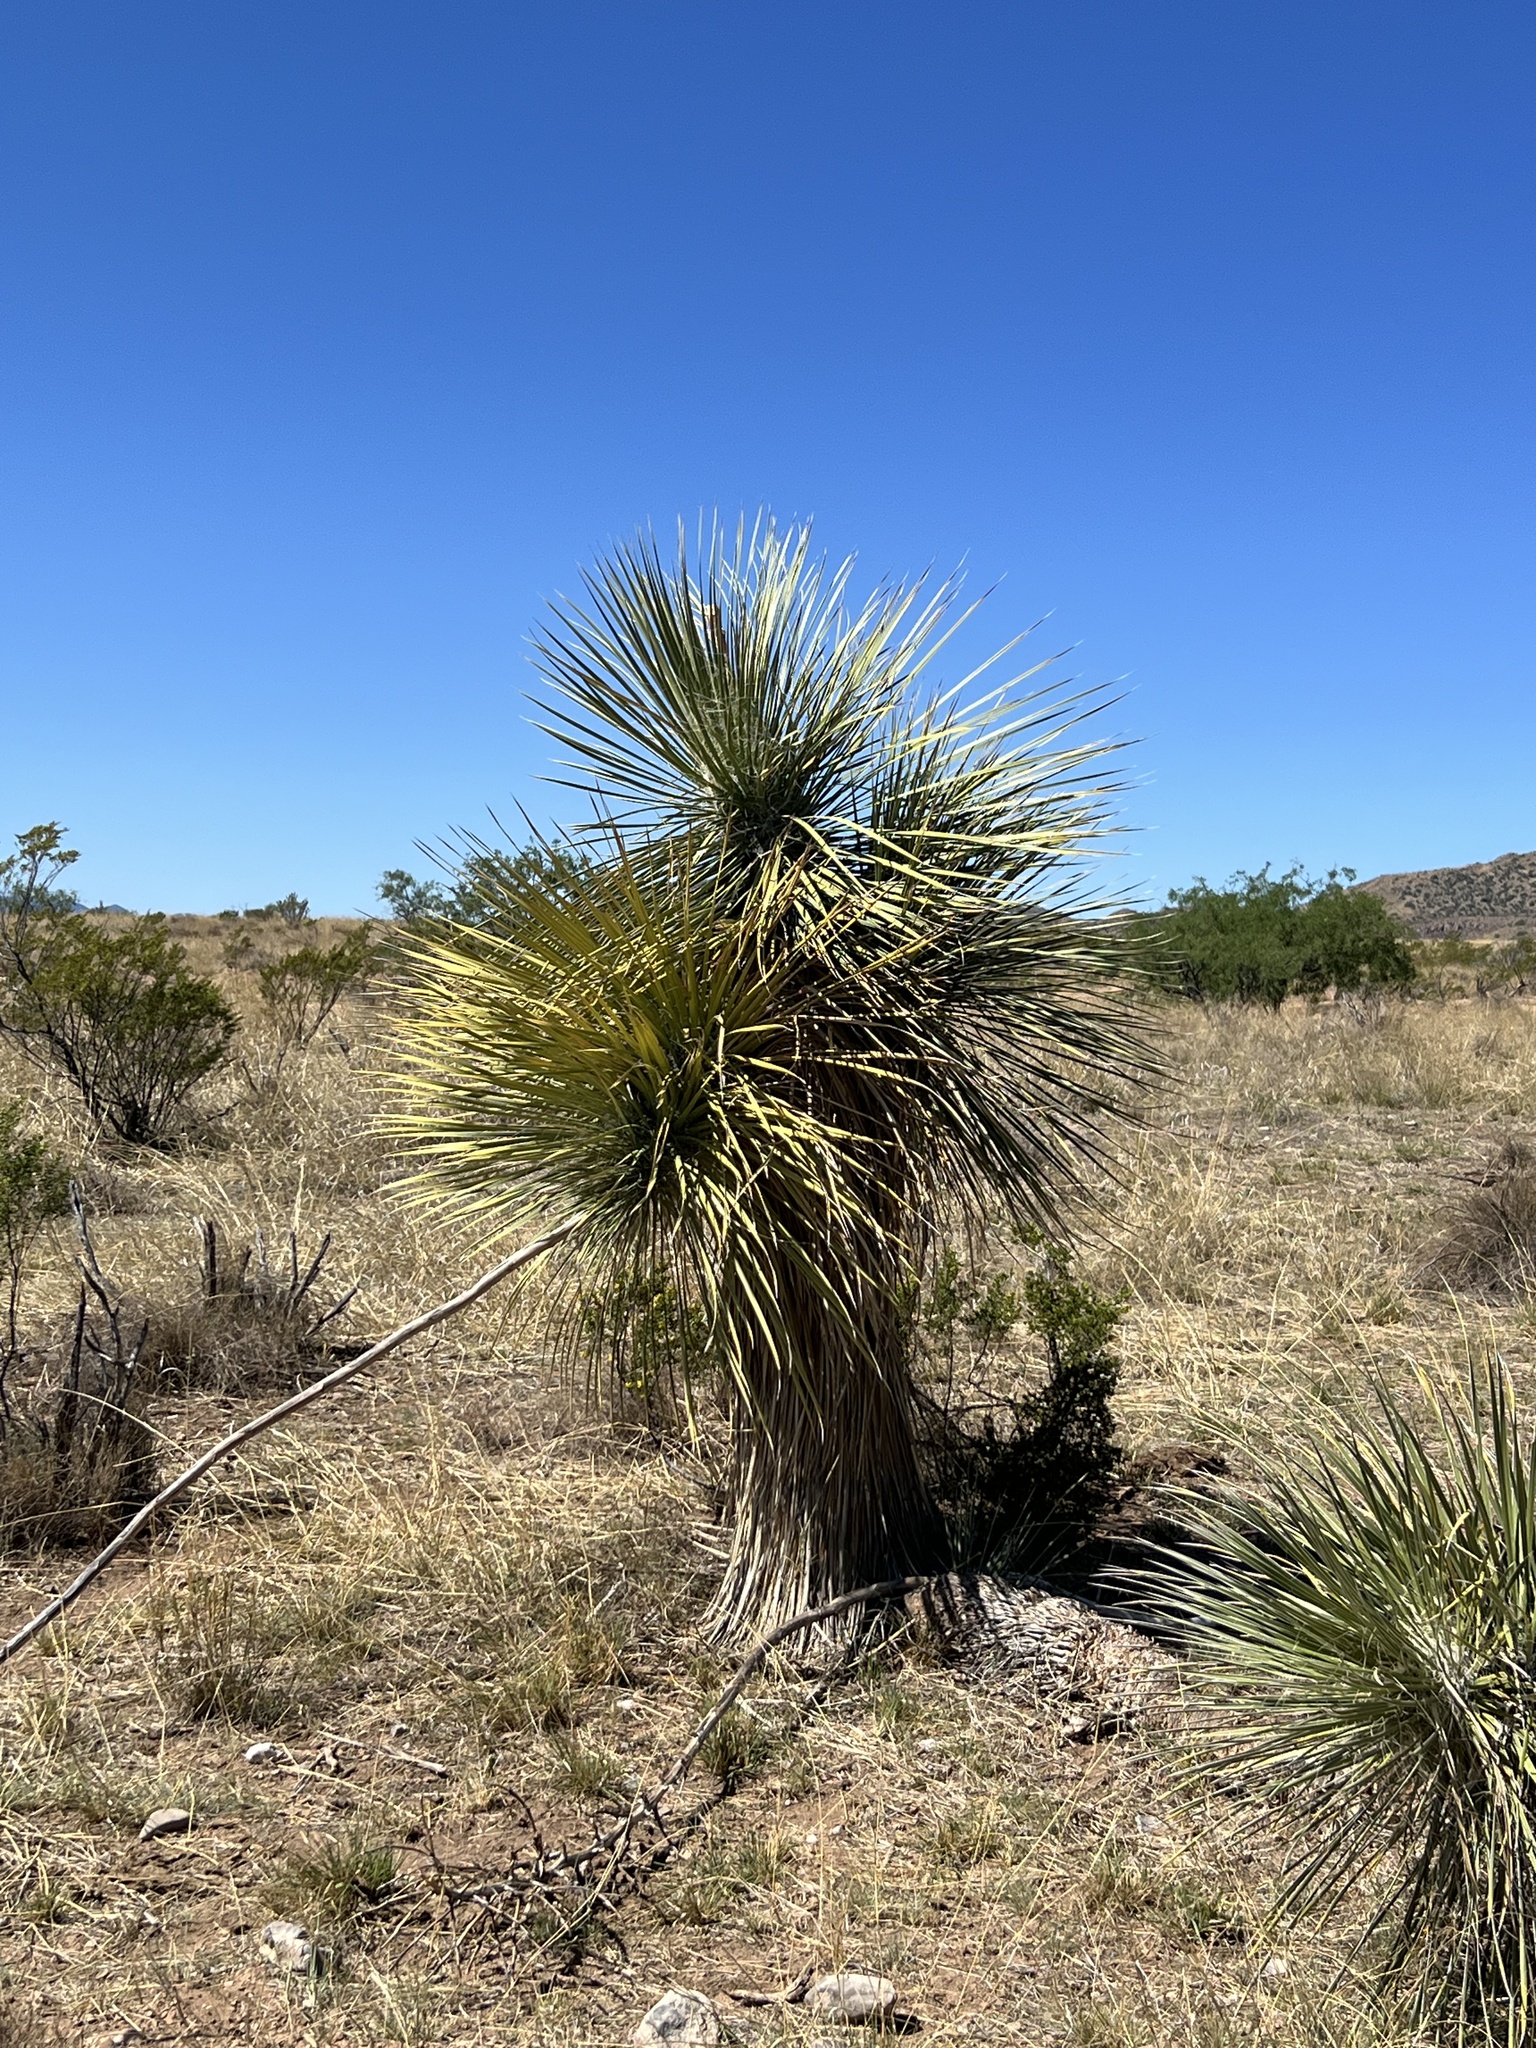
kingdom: Plantae
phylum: Tracheophyta
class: Liliopsida
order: Asparagales
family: Asparagaceae
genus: Yucca
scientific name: Yucca elata
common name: Palmella
